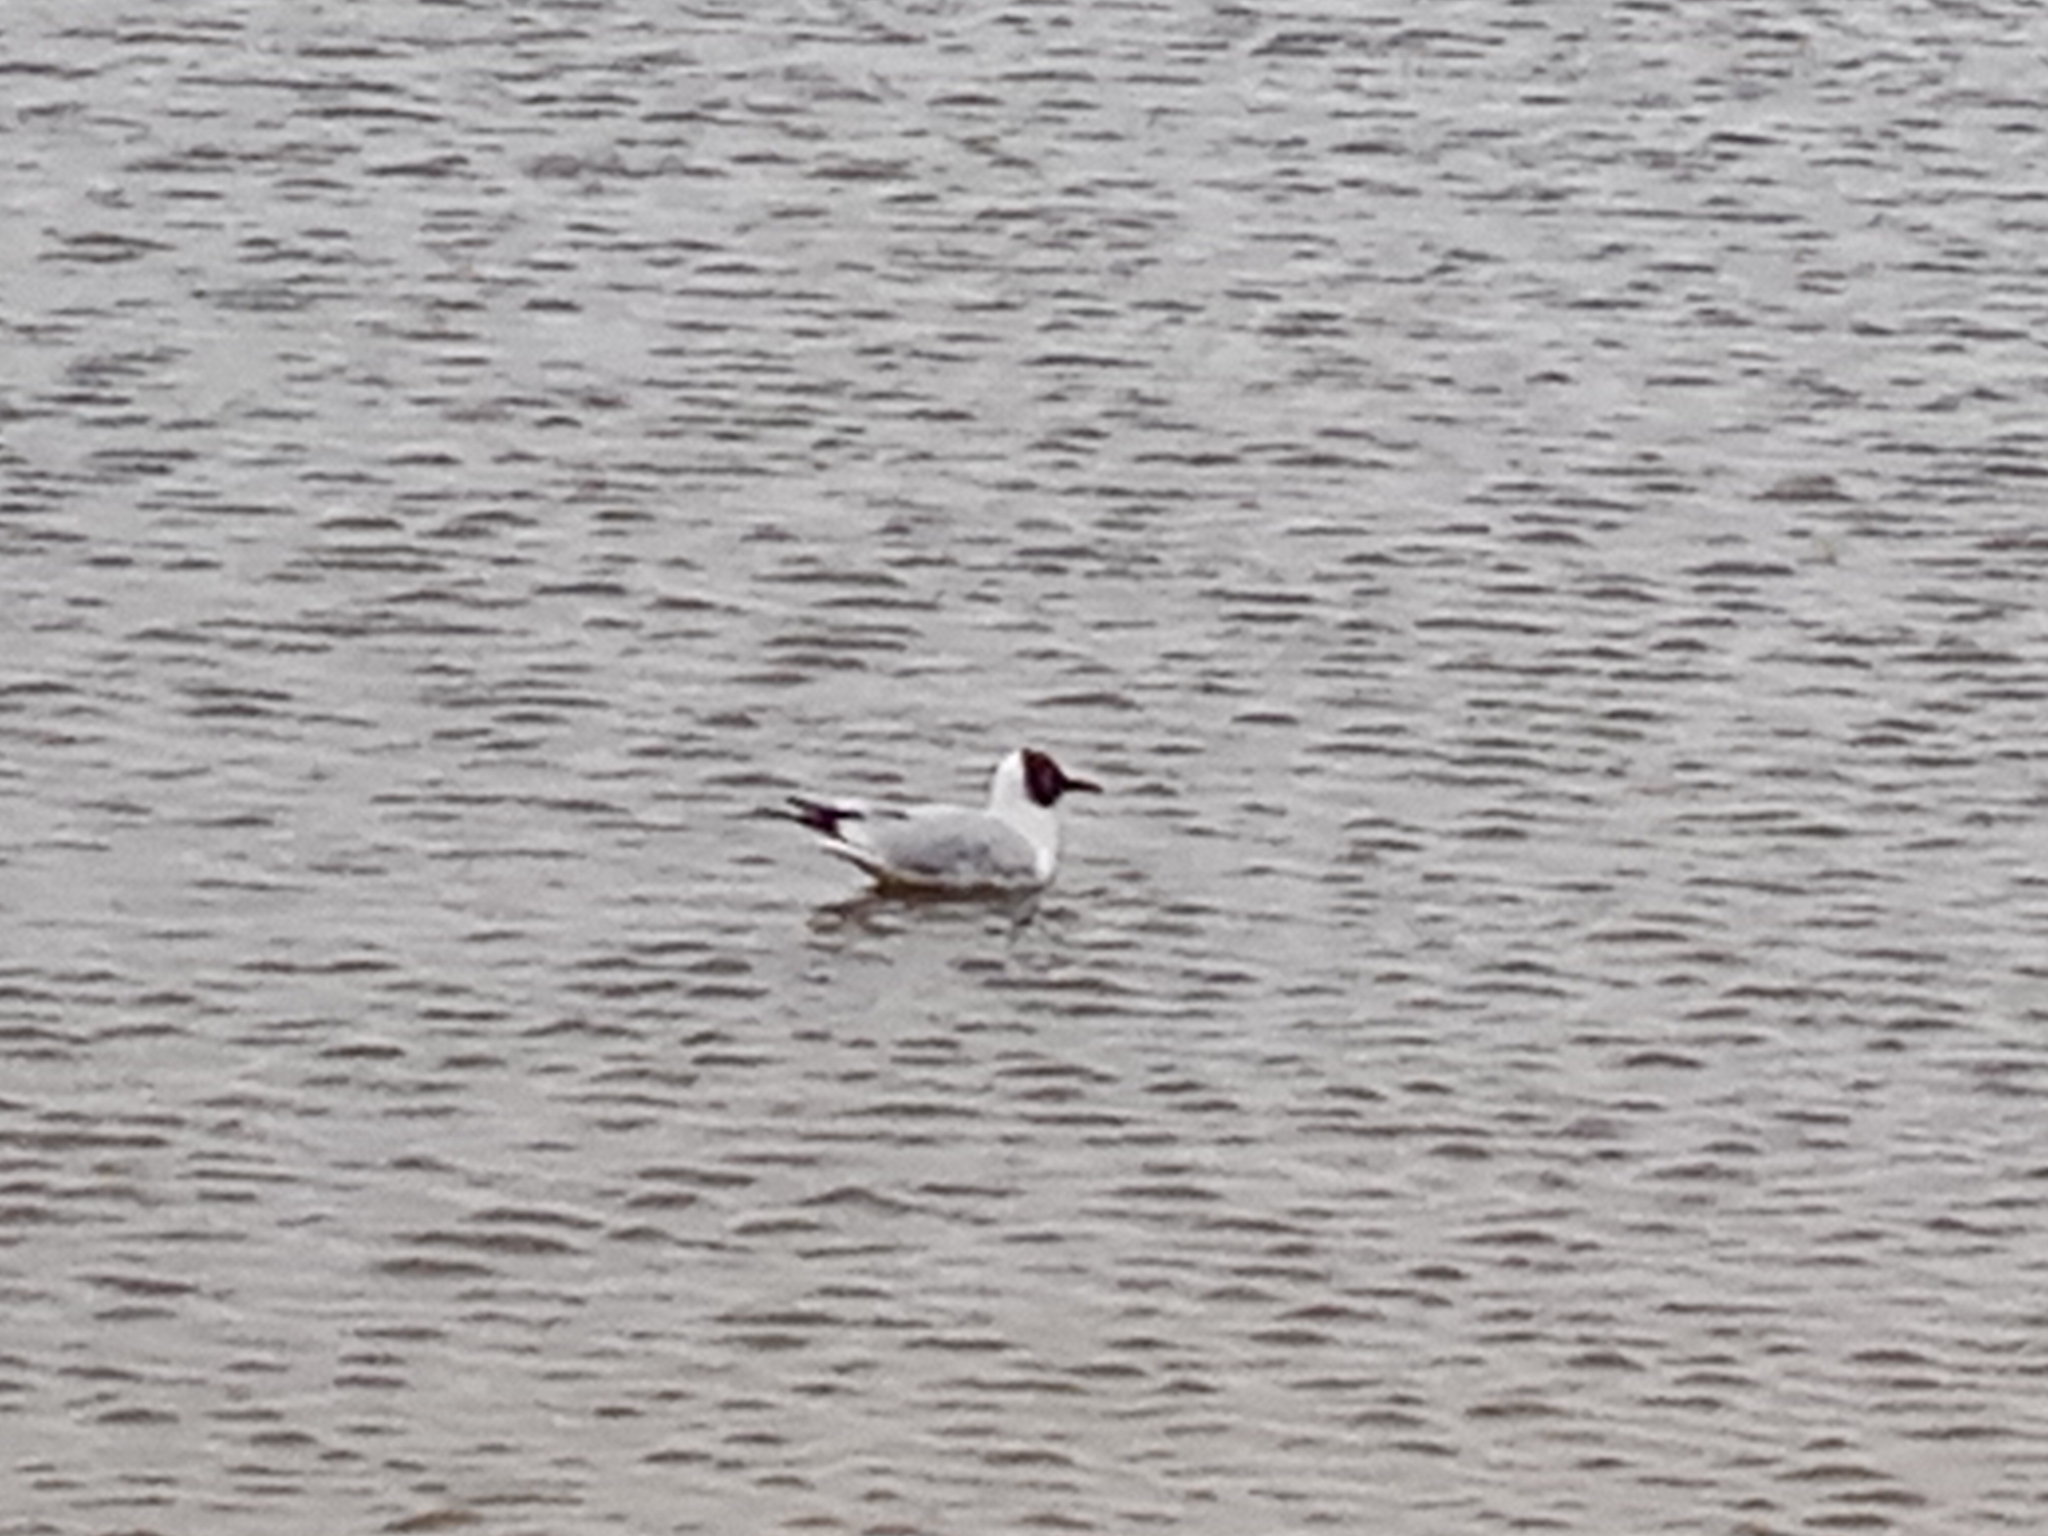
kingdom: Animalia
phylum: Chordata
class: Aves
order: Charadriiformes
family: Laridae
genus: Chroicocephalus
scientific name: Chroicocephalus ridibundus
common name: Black-headed gull
